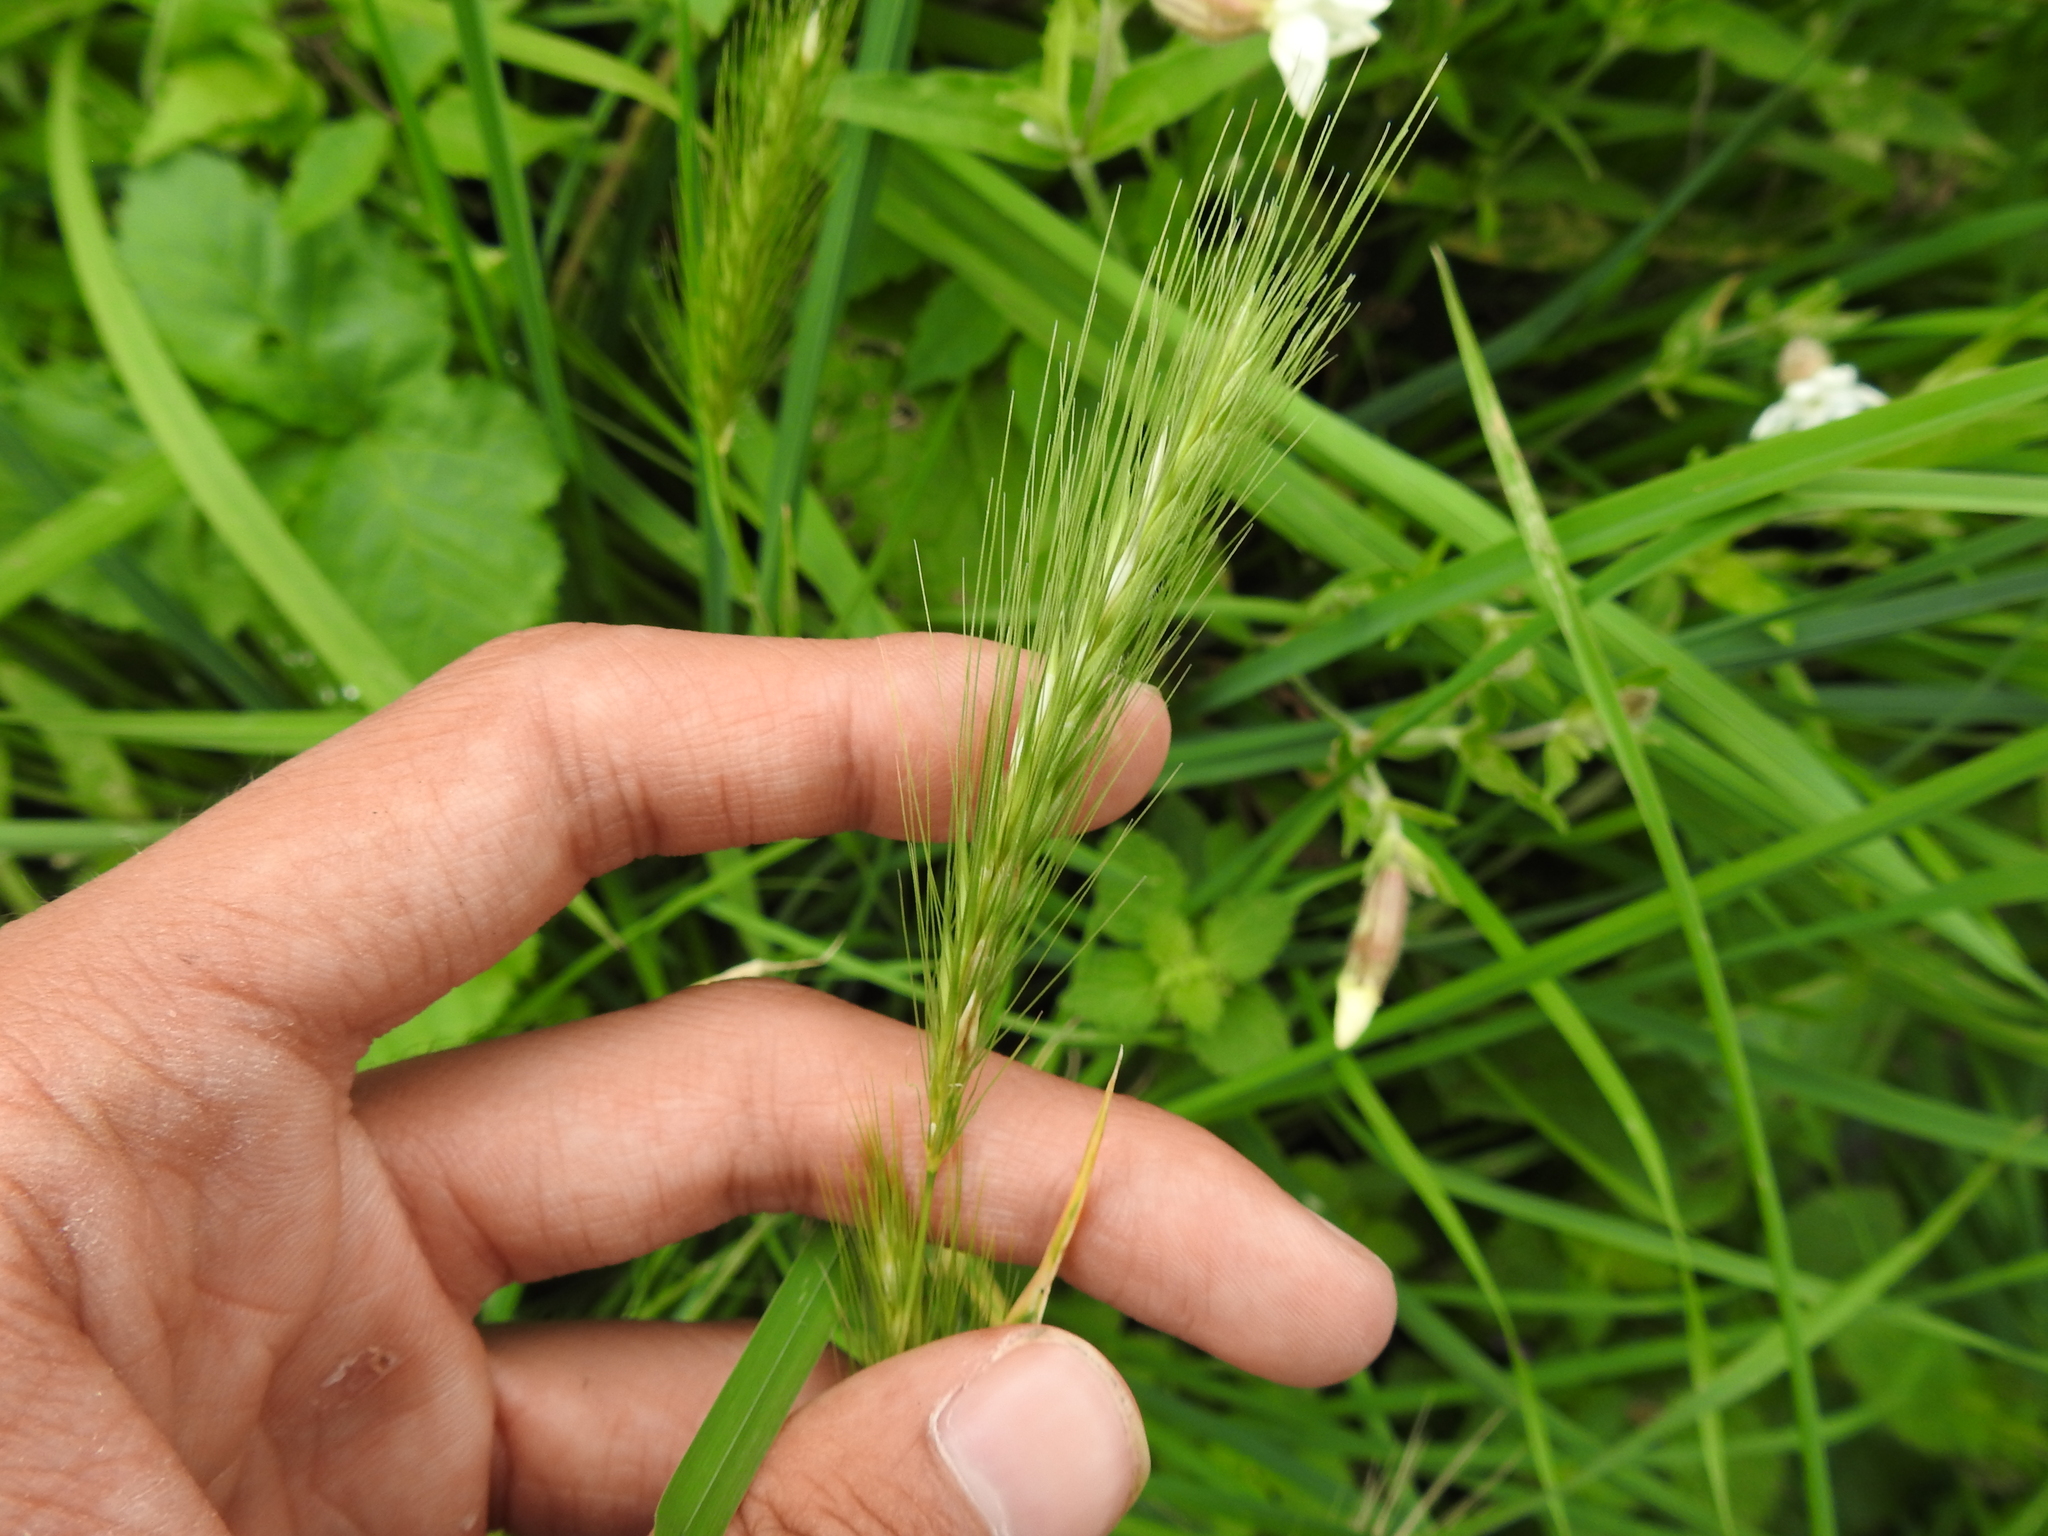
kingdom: Plantae
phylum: Tracheophyta
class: Liliopsida
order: Poales
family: Poaceae
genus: Hordeum
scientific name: Hordeum murinum
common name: Wall barley
